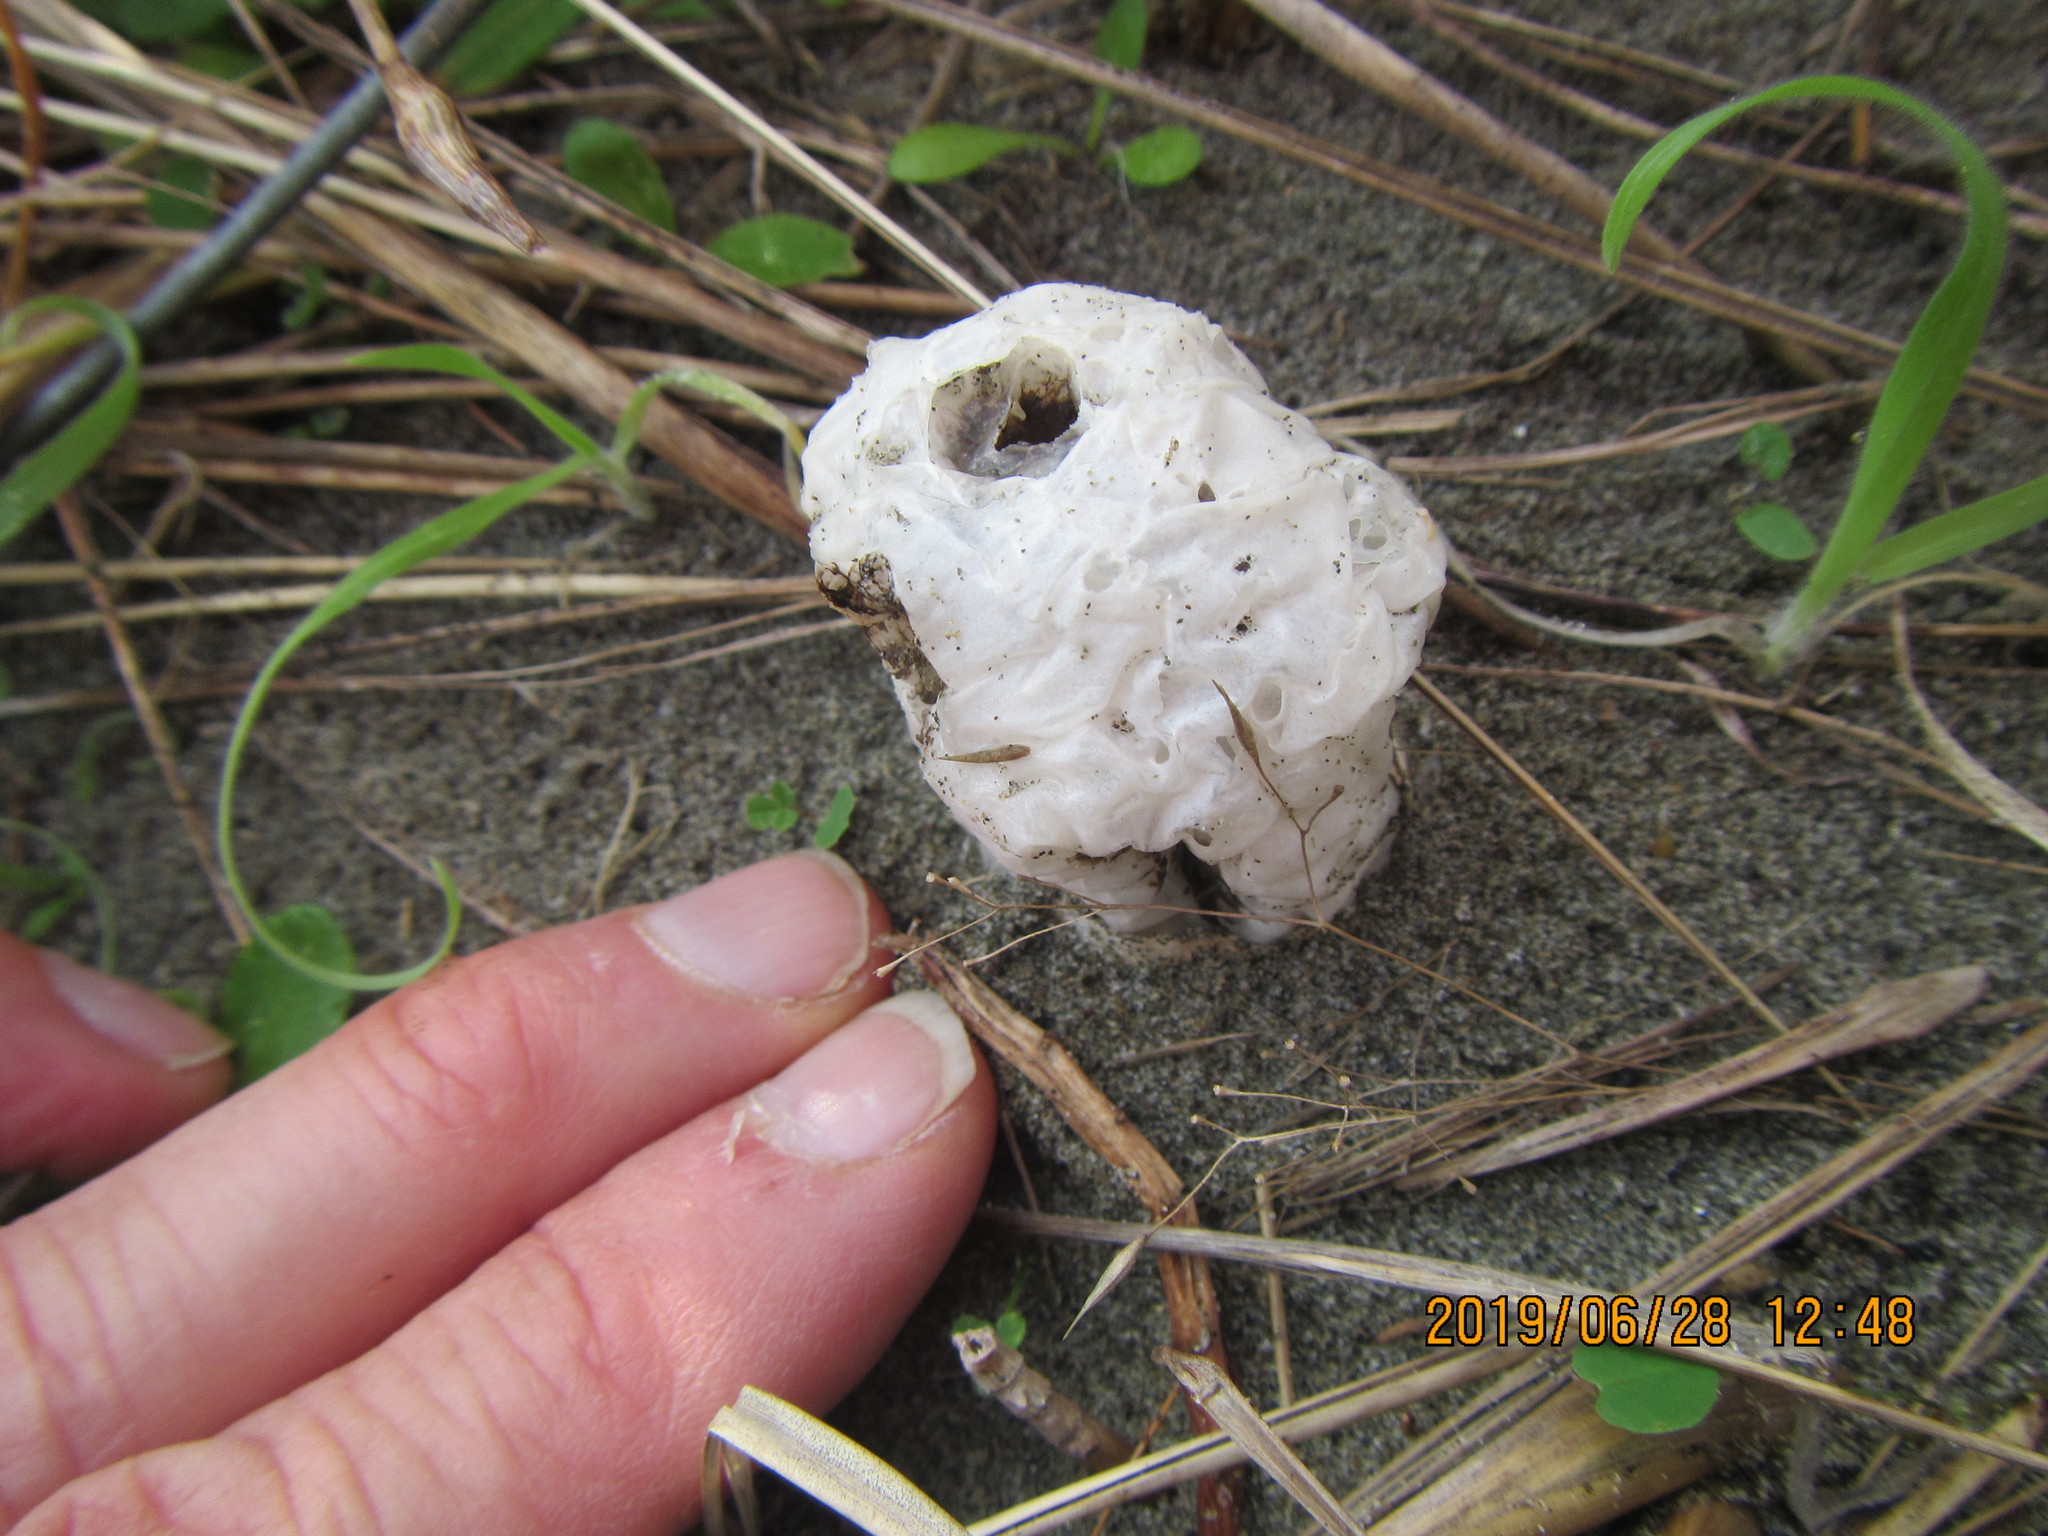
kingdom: Fungi
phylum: Basidiomycota
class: Agaricomycetes
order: Phallales
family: Phallaceae
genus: Ileodictyon
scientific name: Ileodictyon cibarium
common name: Basket fungus
